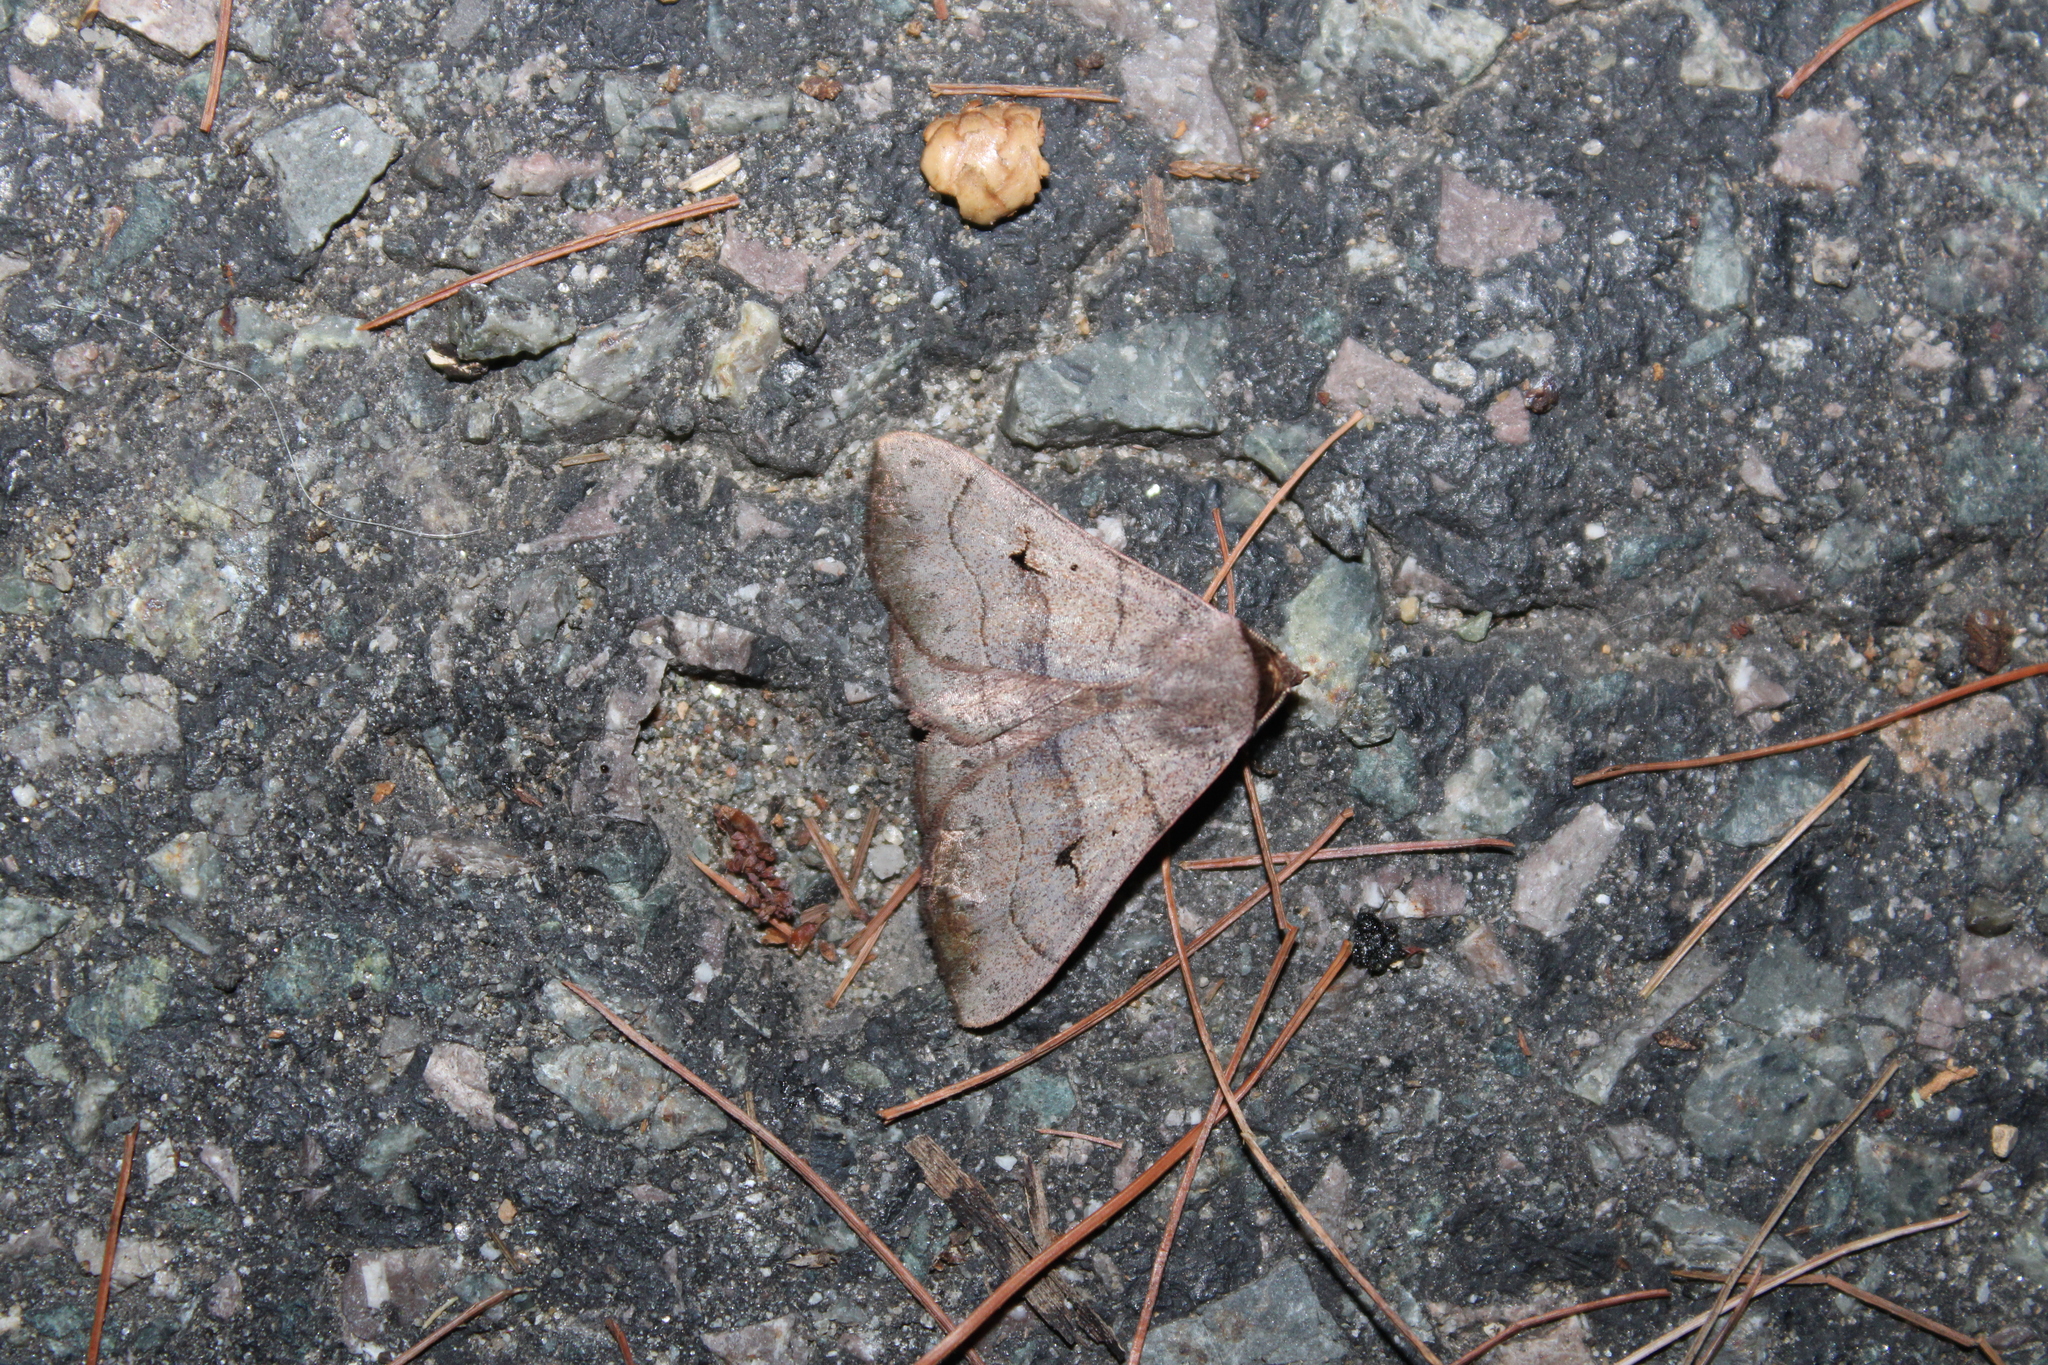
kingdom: Animalia
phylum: Arthropoda
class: Insecta
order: Lepidoptera
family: Erebidae
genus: Panopoda
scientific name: Panopoda carneicosta
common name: Brown panopoda moth
